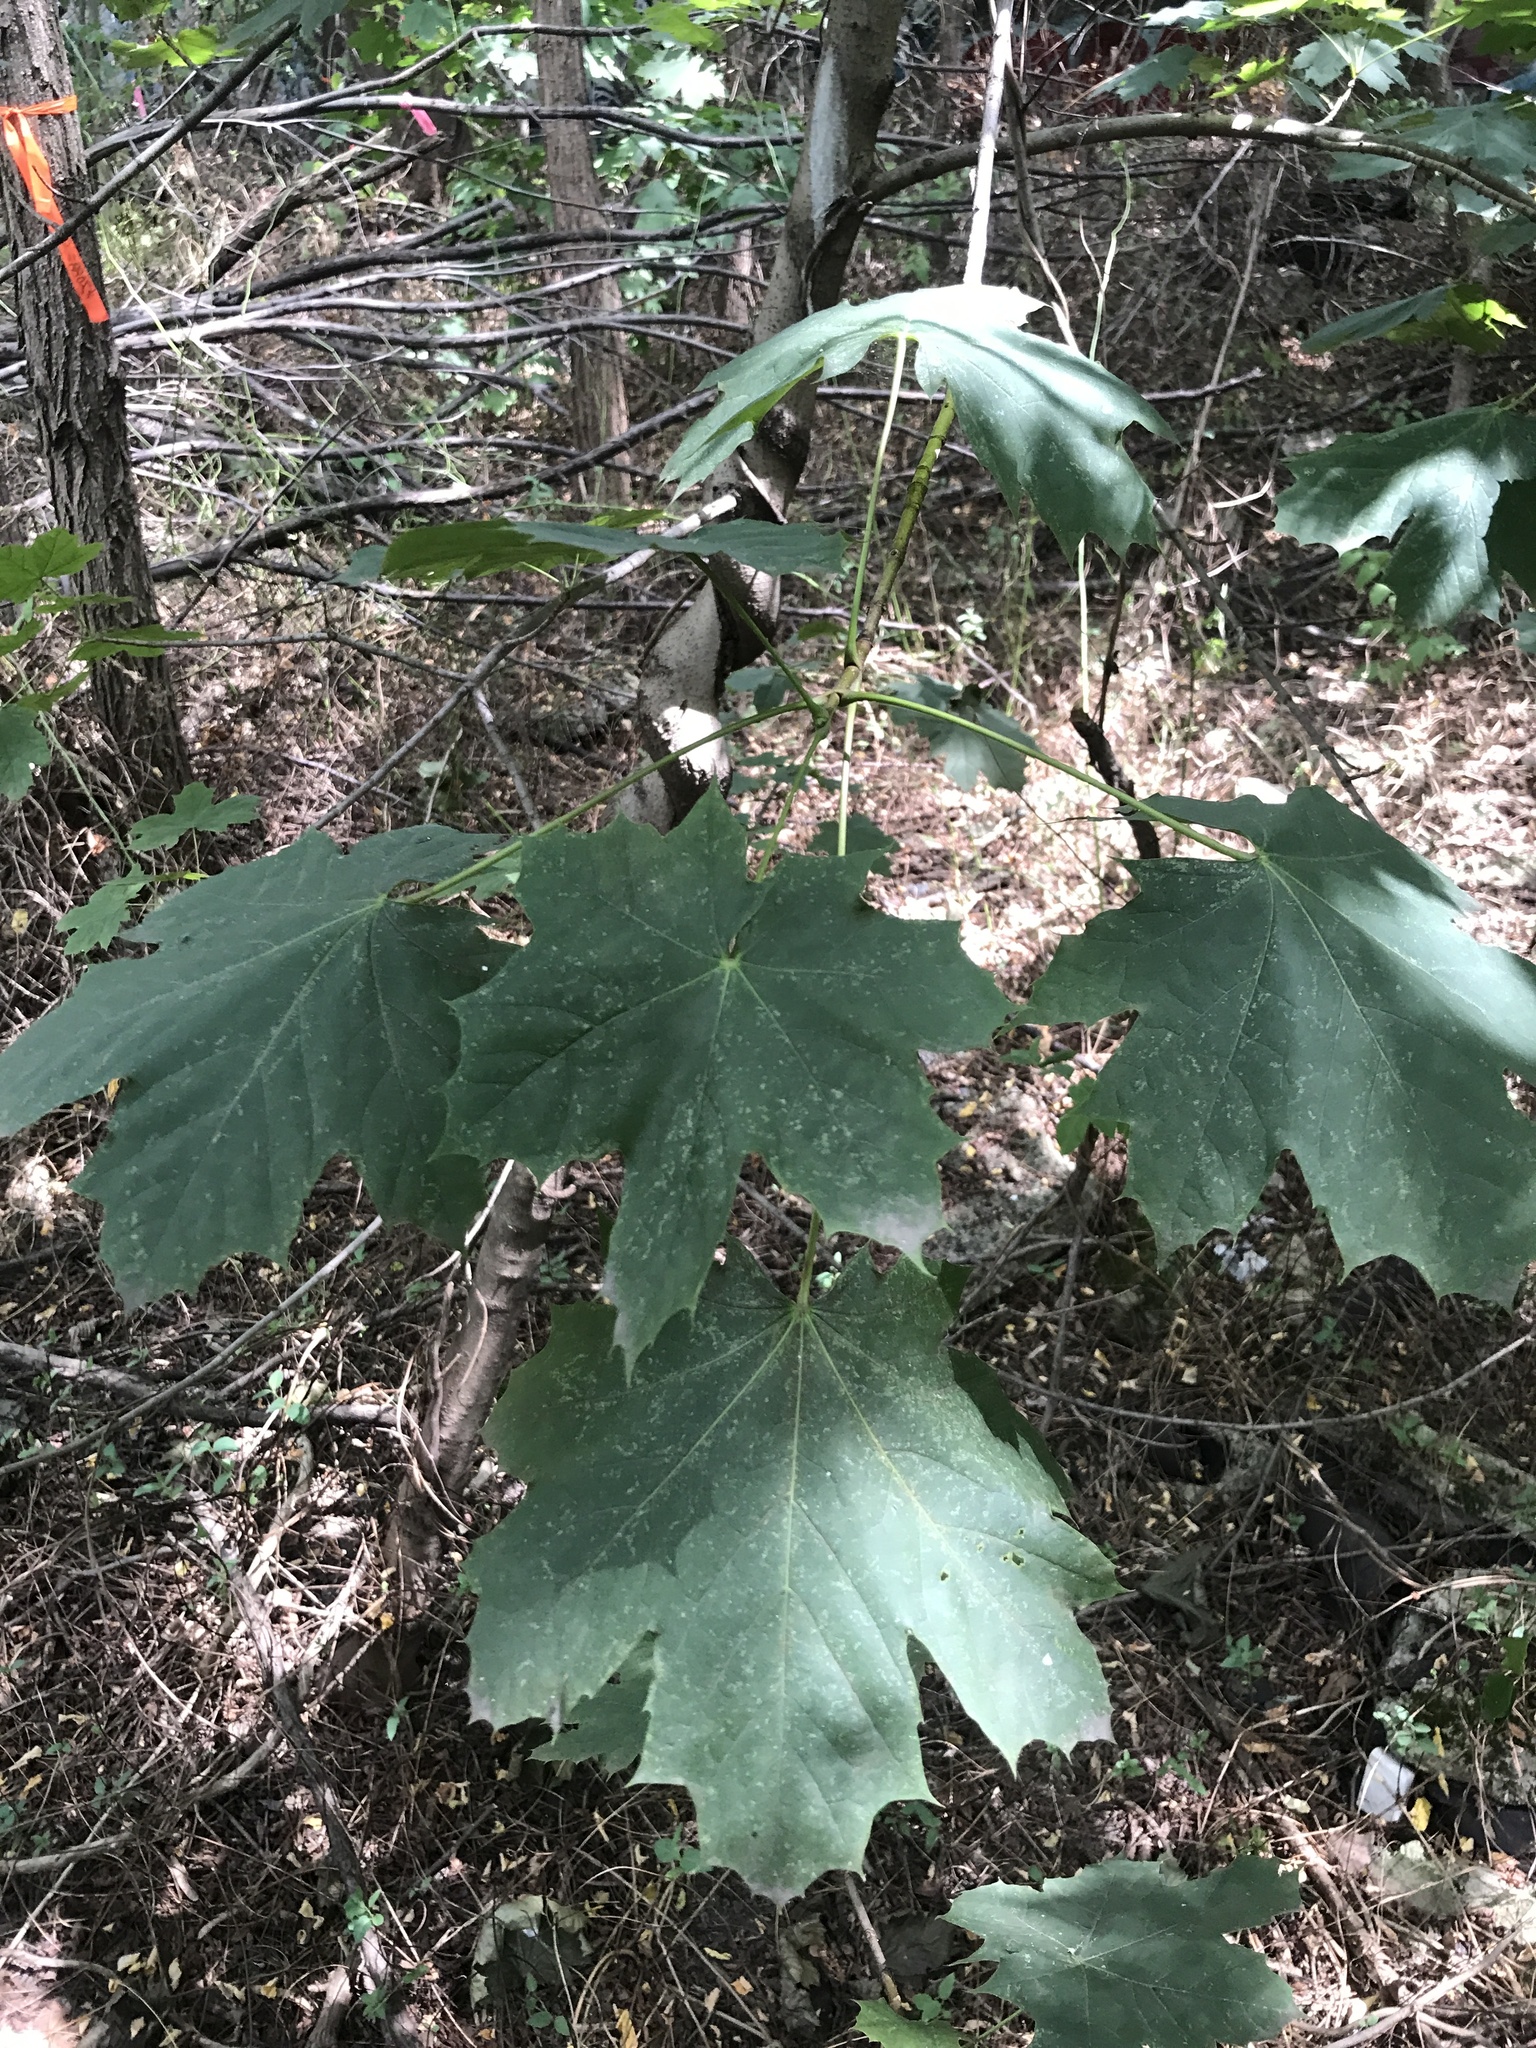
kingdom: Plantae
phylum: Tracheophyta
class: Magnoliopsida
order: Sapindales
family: Sapindaceae
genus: Acer
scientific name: Acer platanoides
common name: Norway maple
